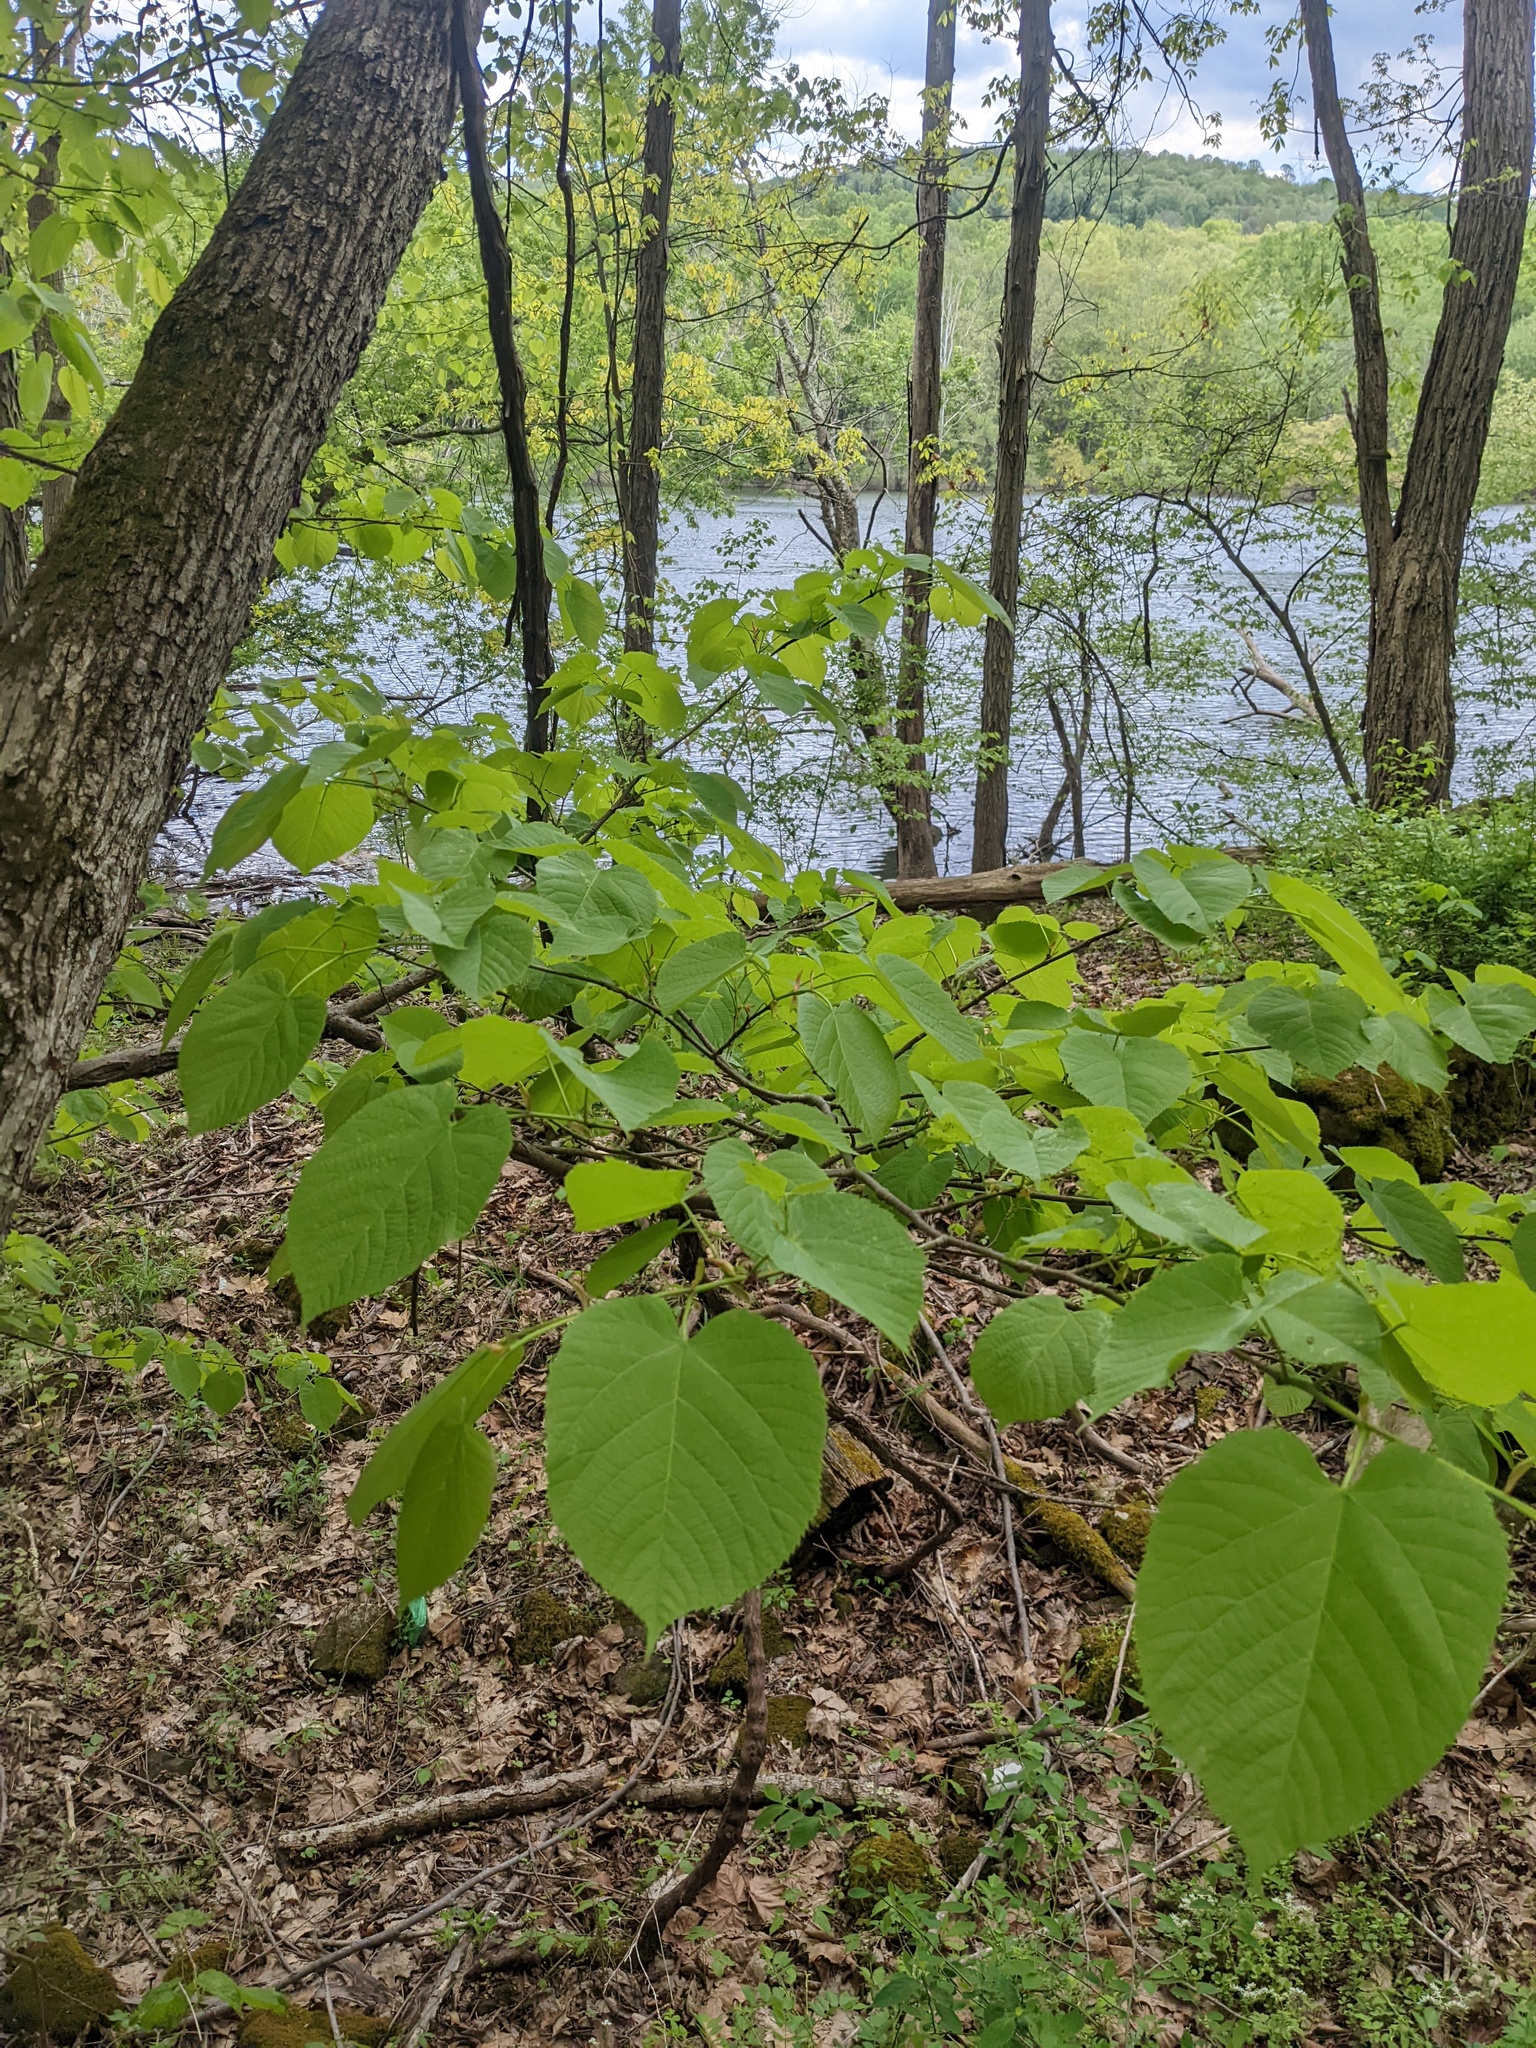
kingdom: Plantae
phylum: Tracheophyta
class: Magnoliopsida
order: Malvales
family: Malvaceae
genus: Tilia
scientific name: Tilia americana
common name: Basswood
